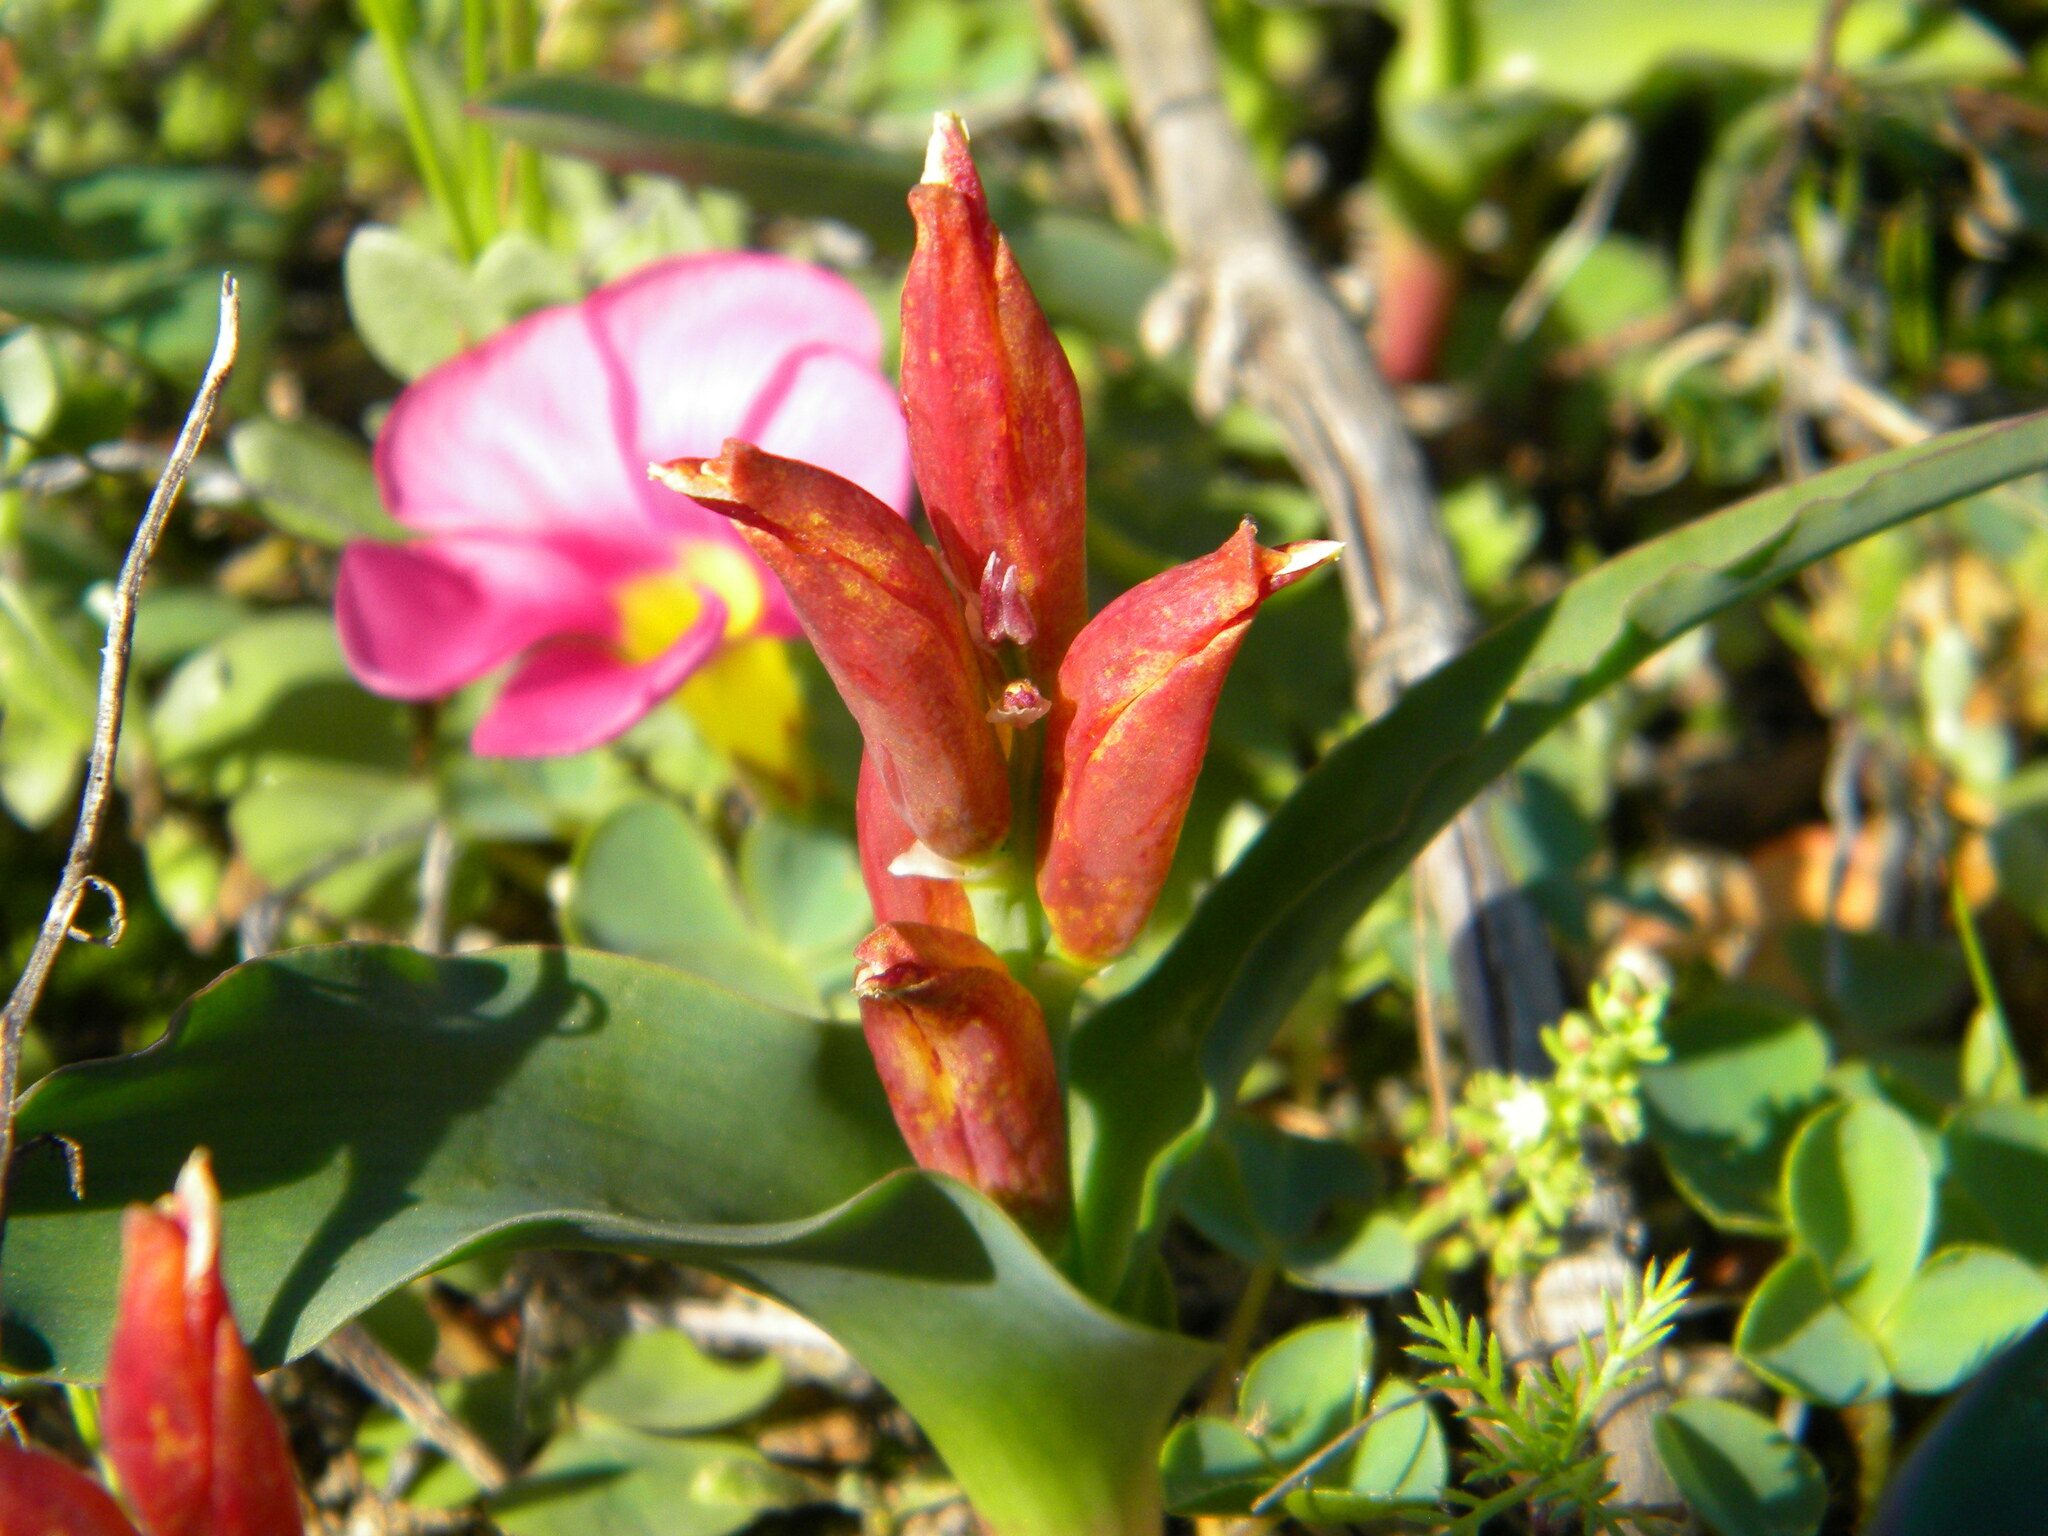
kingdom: Plantae
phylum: Tracheophyta
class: Liliopsida
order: Asparagales
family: Asparagaceae
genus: Lachenalia
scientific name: Lachenalia reflexa
